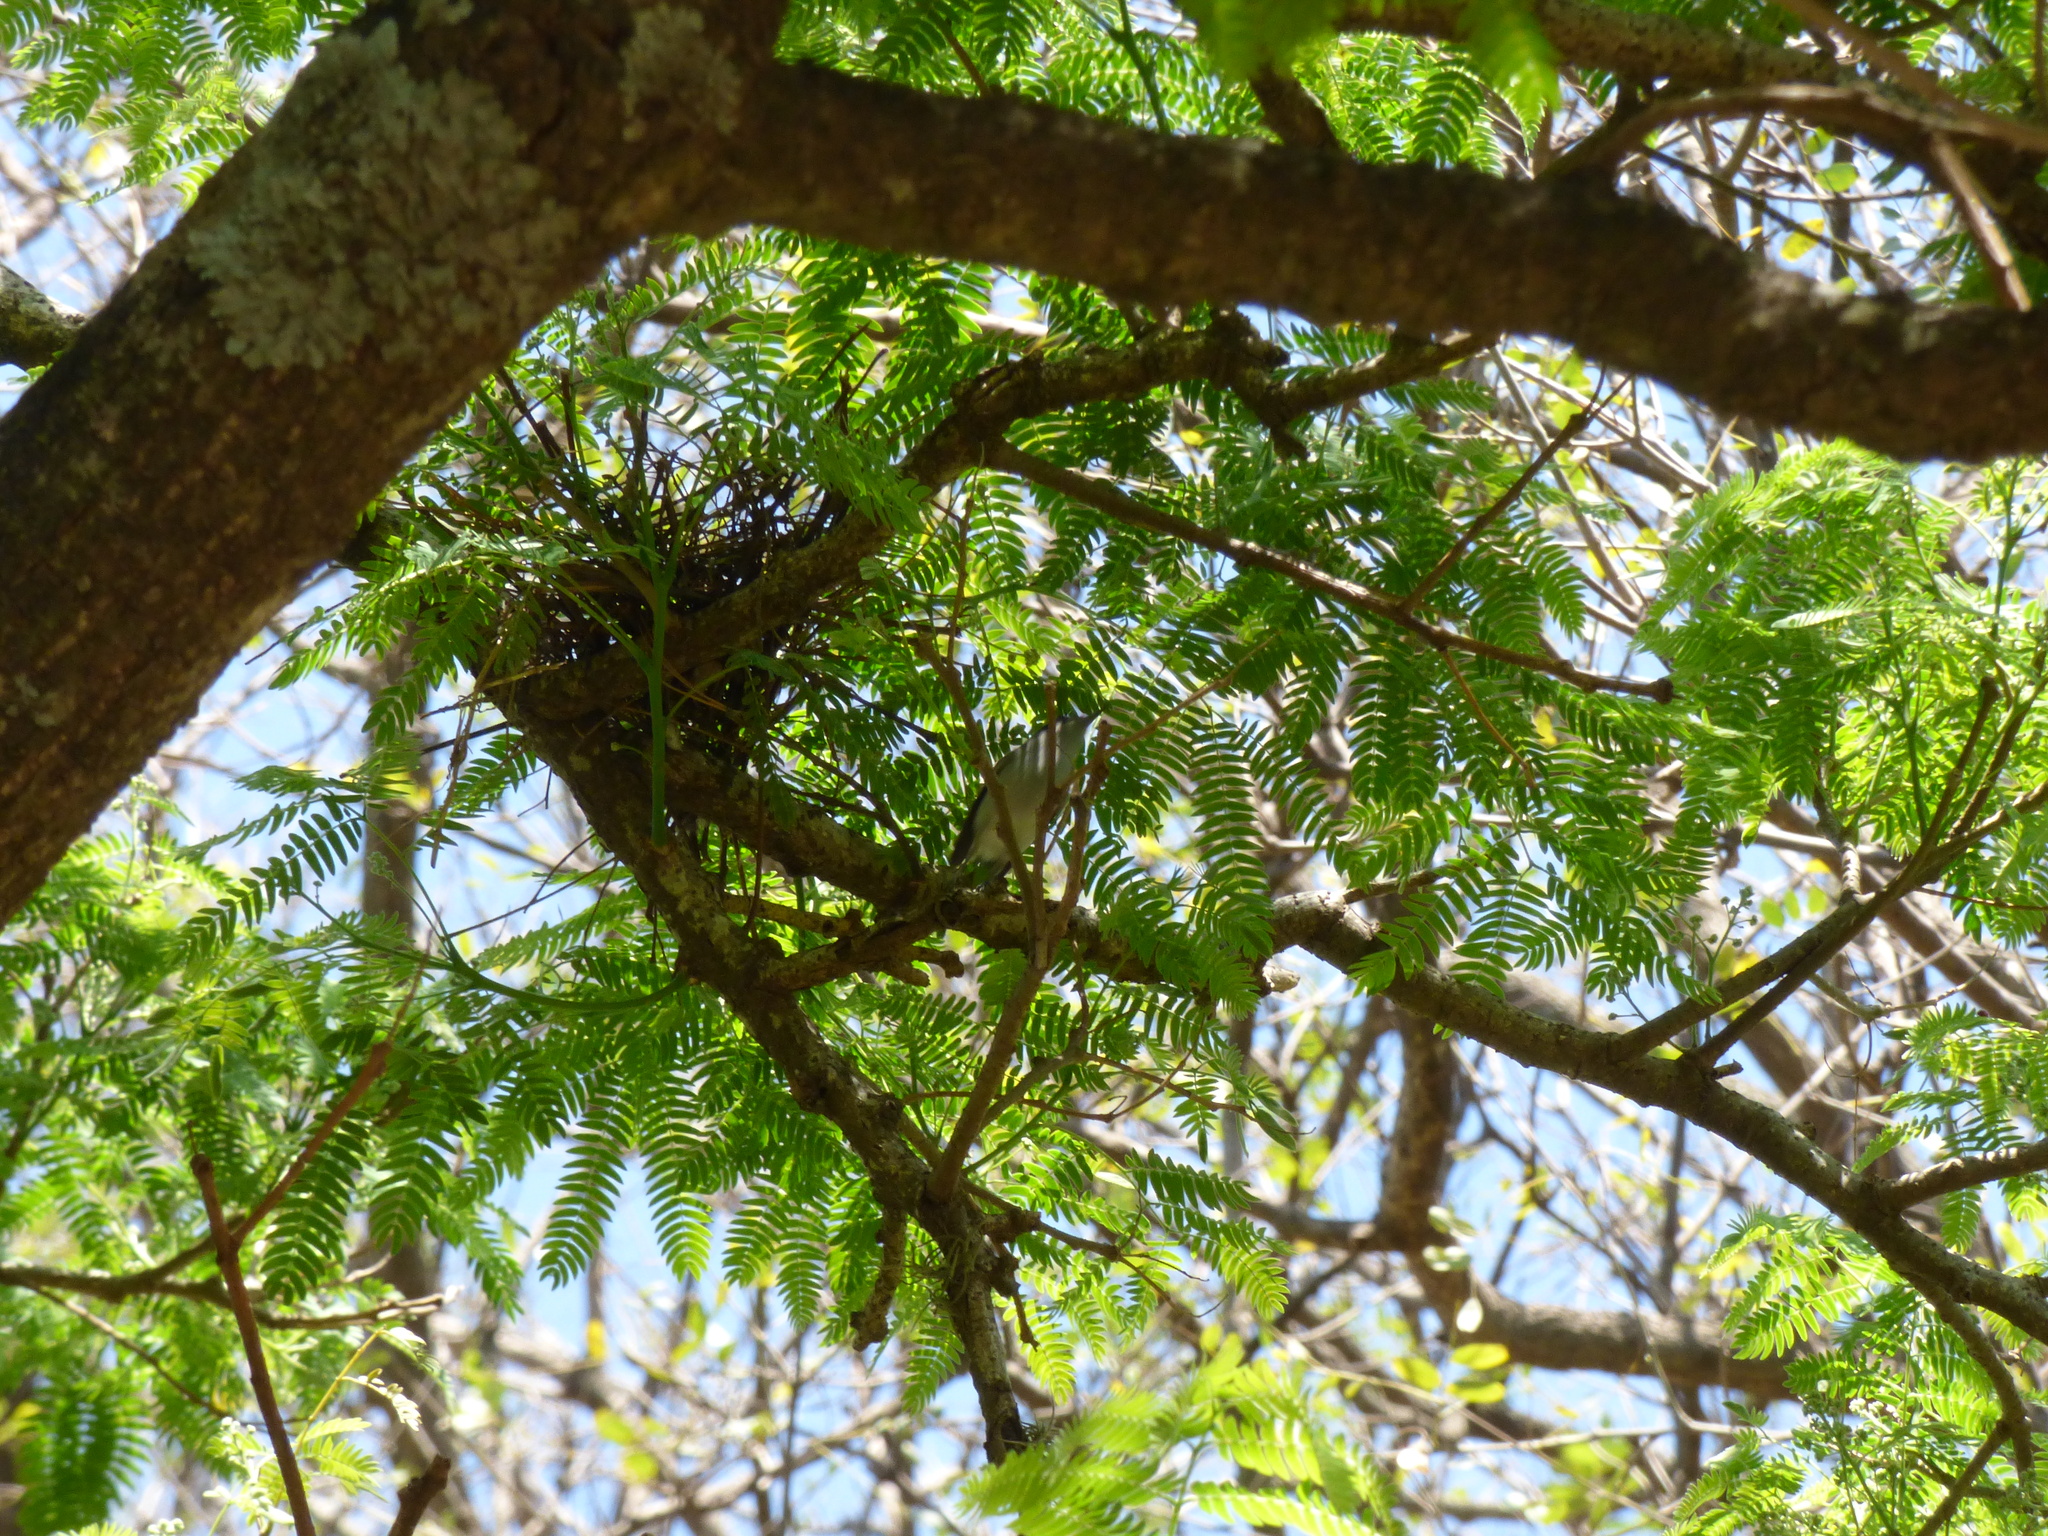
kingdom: Animalia
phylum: Chordata
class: Aves
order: Passeriformes
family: Polioptilidae
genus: Polioptila
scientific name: Polioptila dumicola
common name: Masked gnatcatcher
